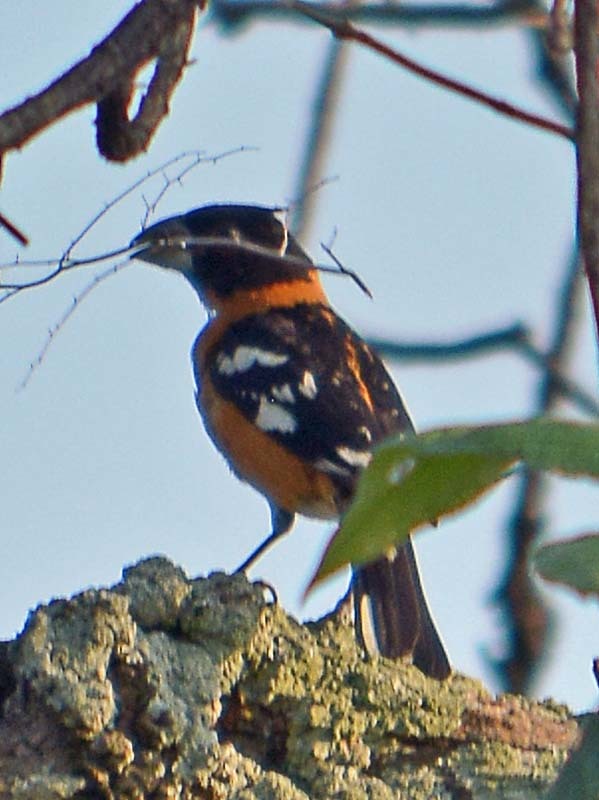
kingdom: Animalia
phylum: Chordata
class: Aves
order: Passeriformes
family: Cardinalidae
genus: Pheucticus
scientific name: Pheucticus melanocephalus
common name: Black-headed grosbeak
